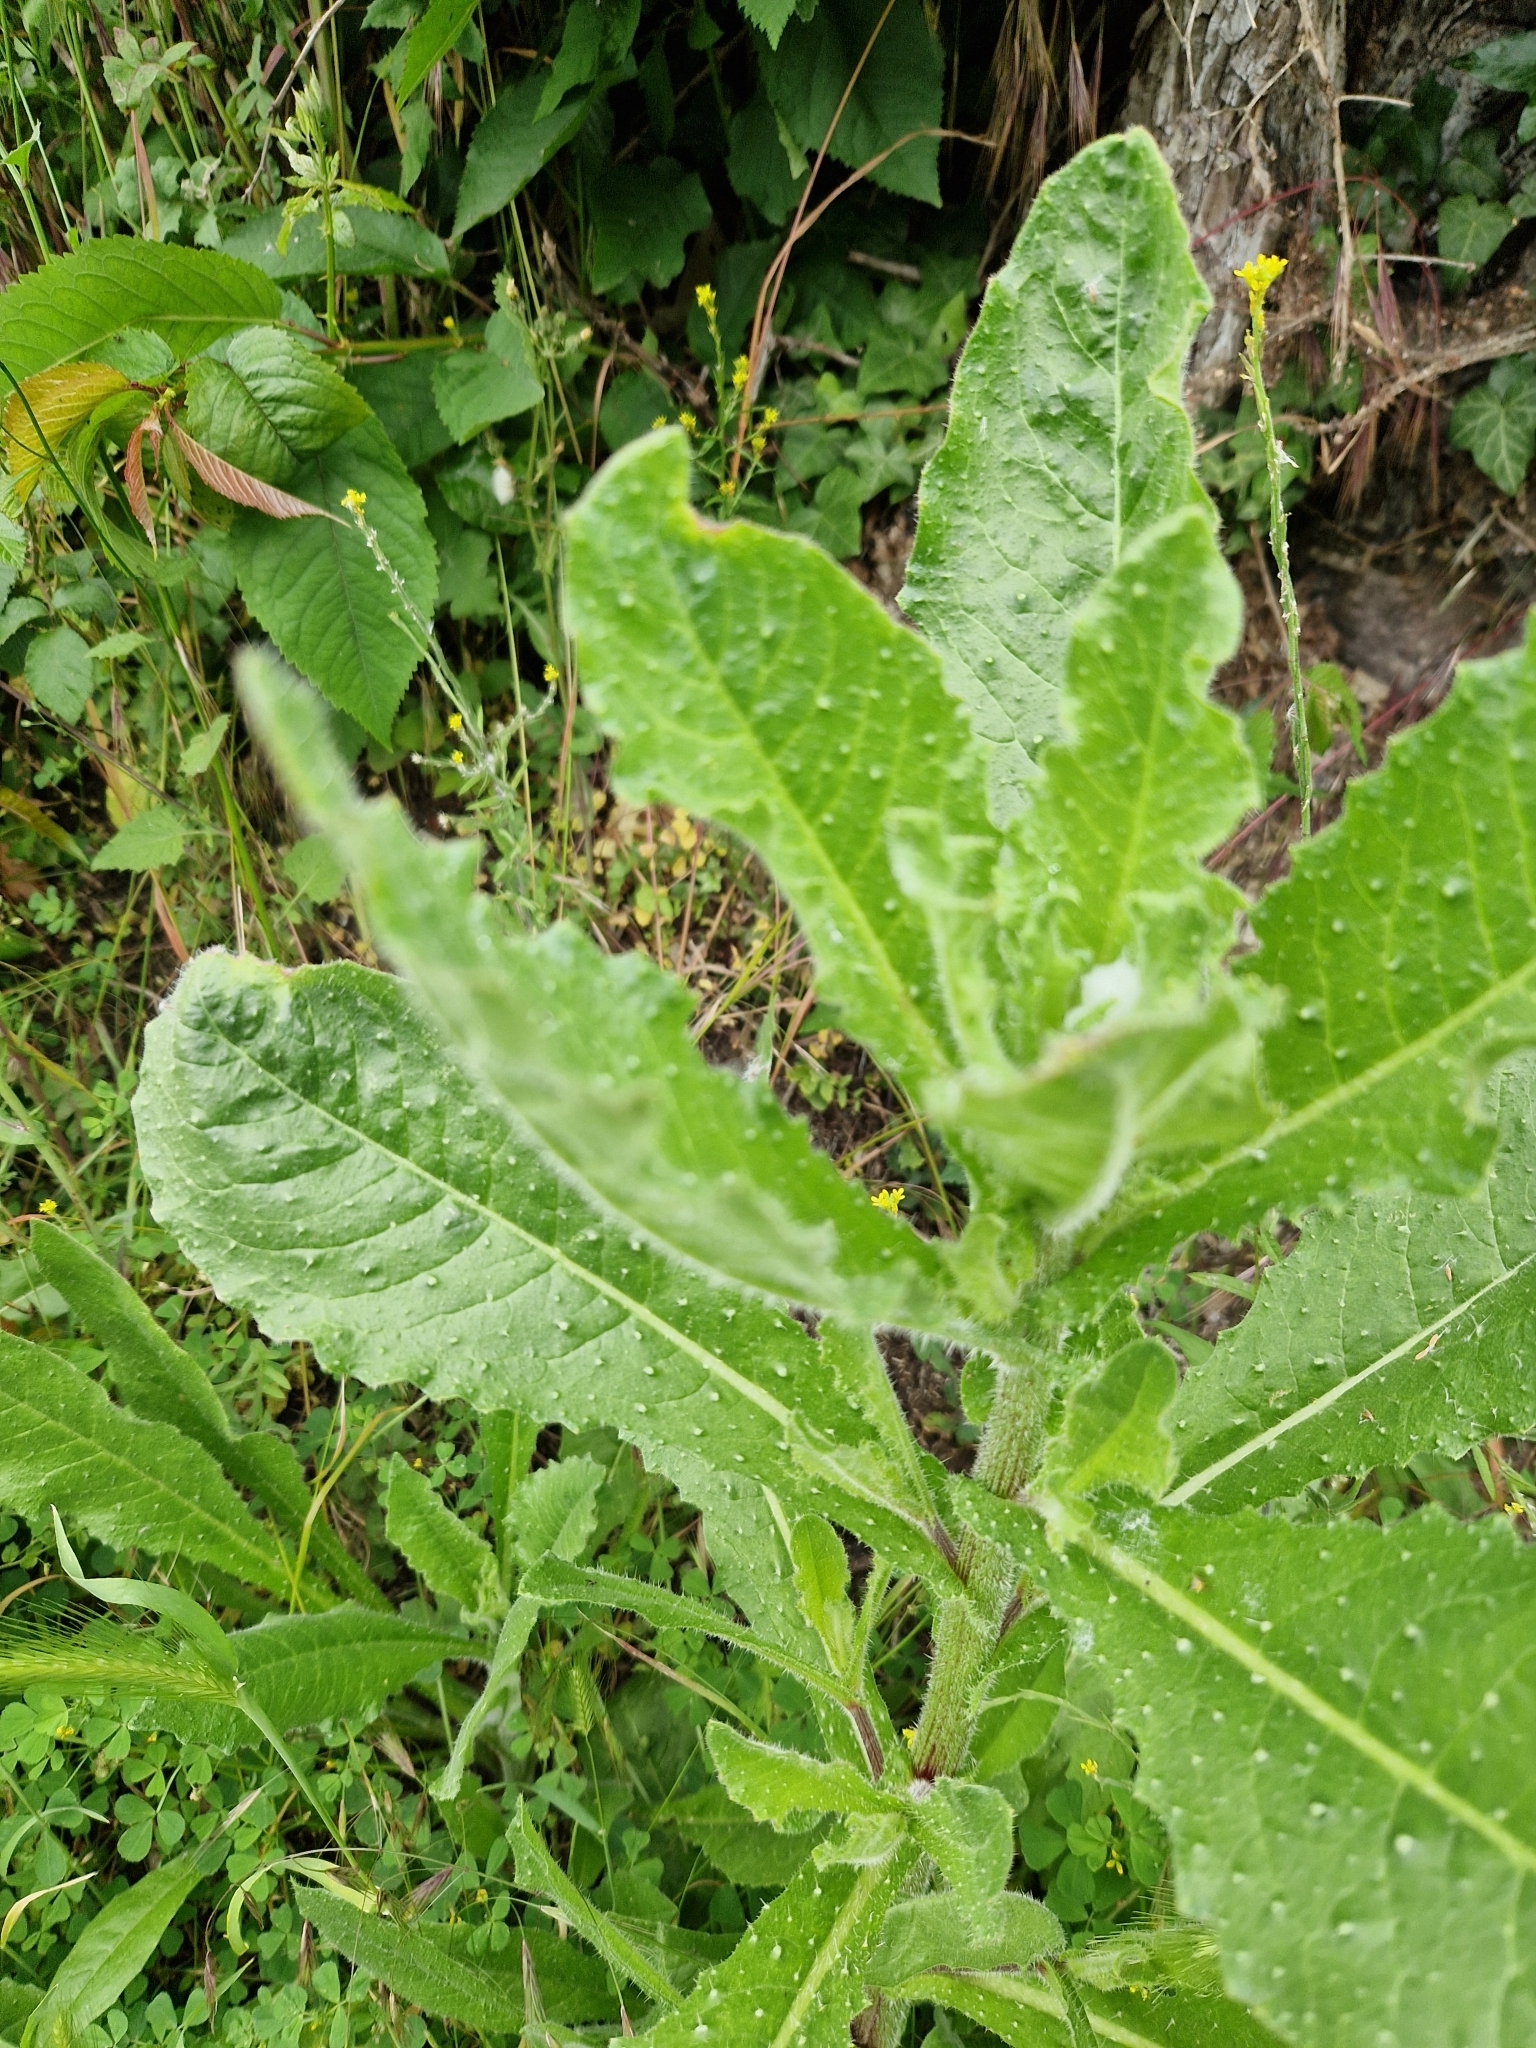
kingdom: Plantae
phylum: Tracheophyta
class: Magnoliopsida
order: Asterales
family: Asteraceae
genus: Helminthotheca
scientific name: Helminthotheca echioides
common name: Ox-tongue
